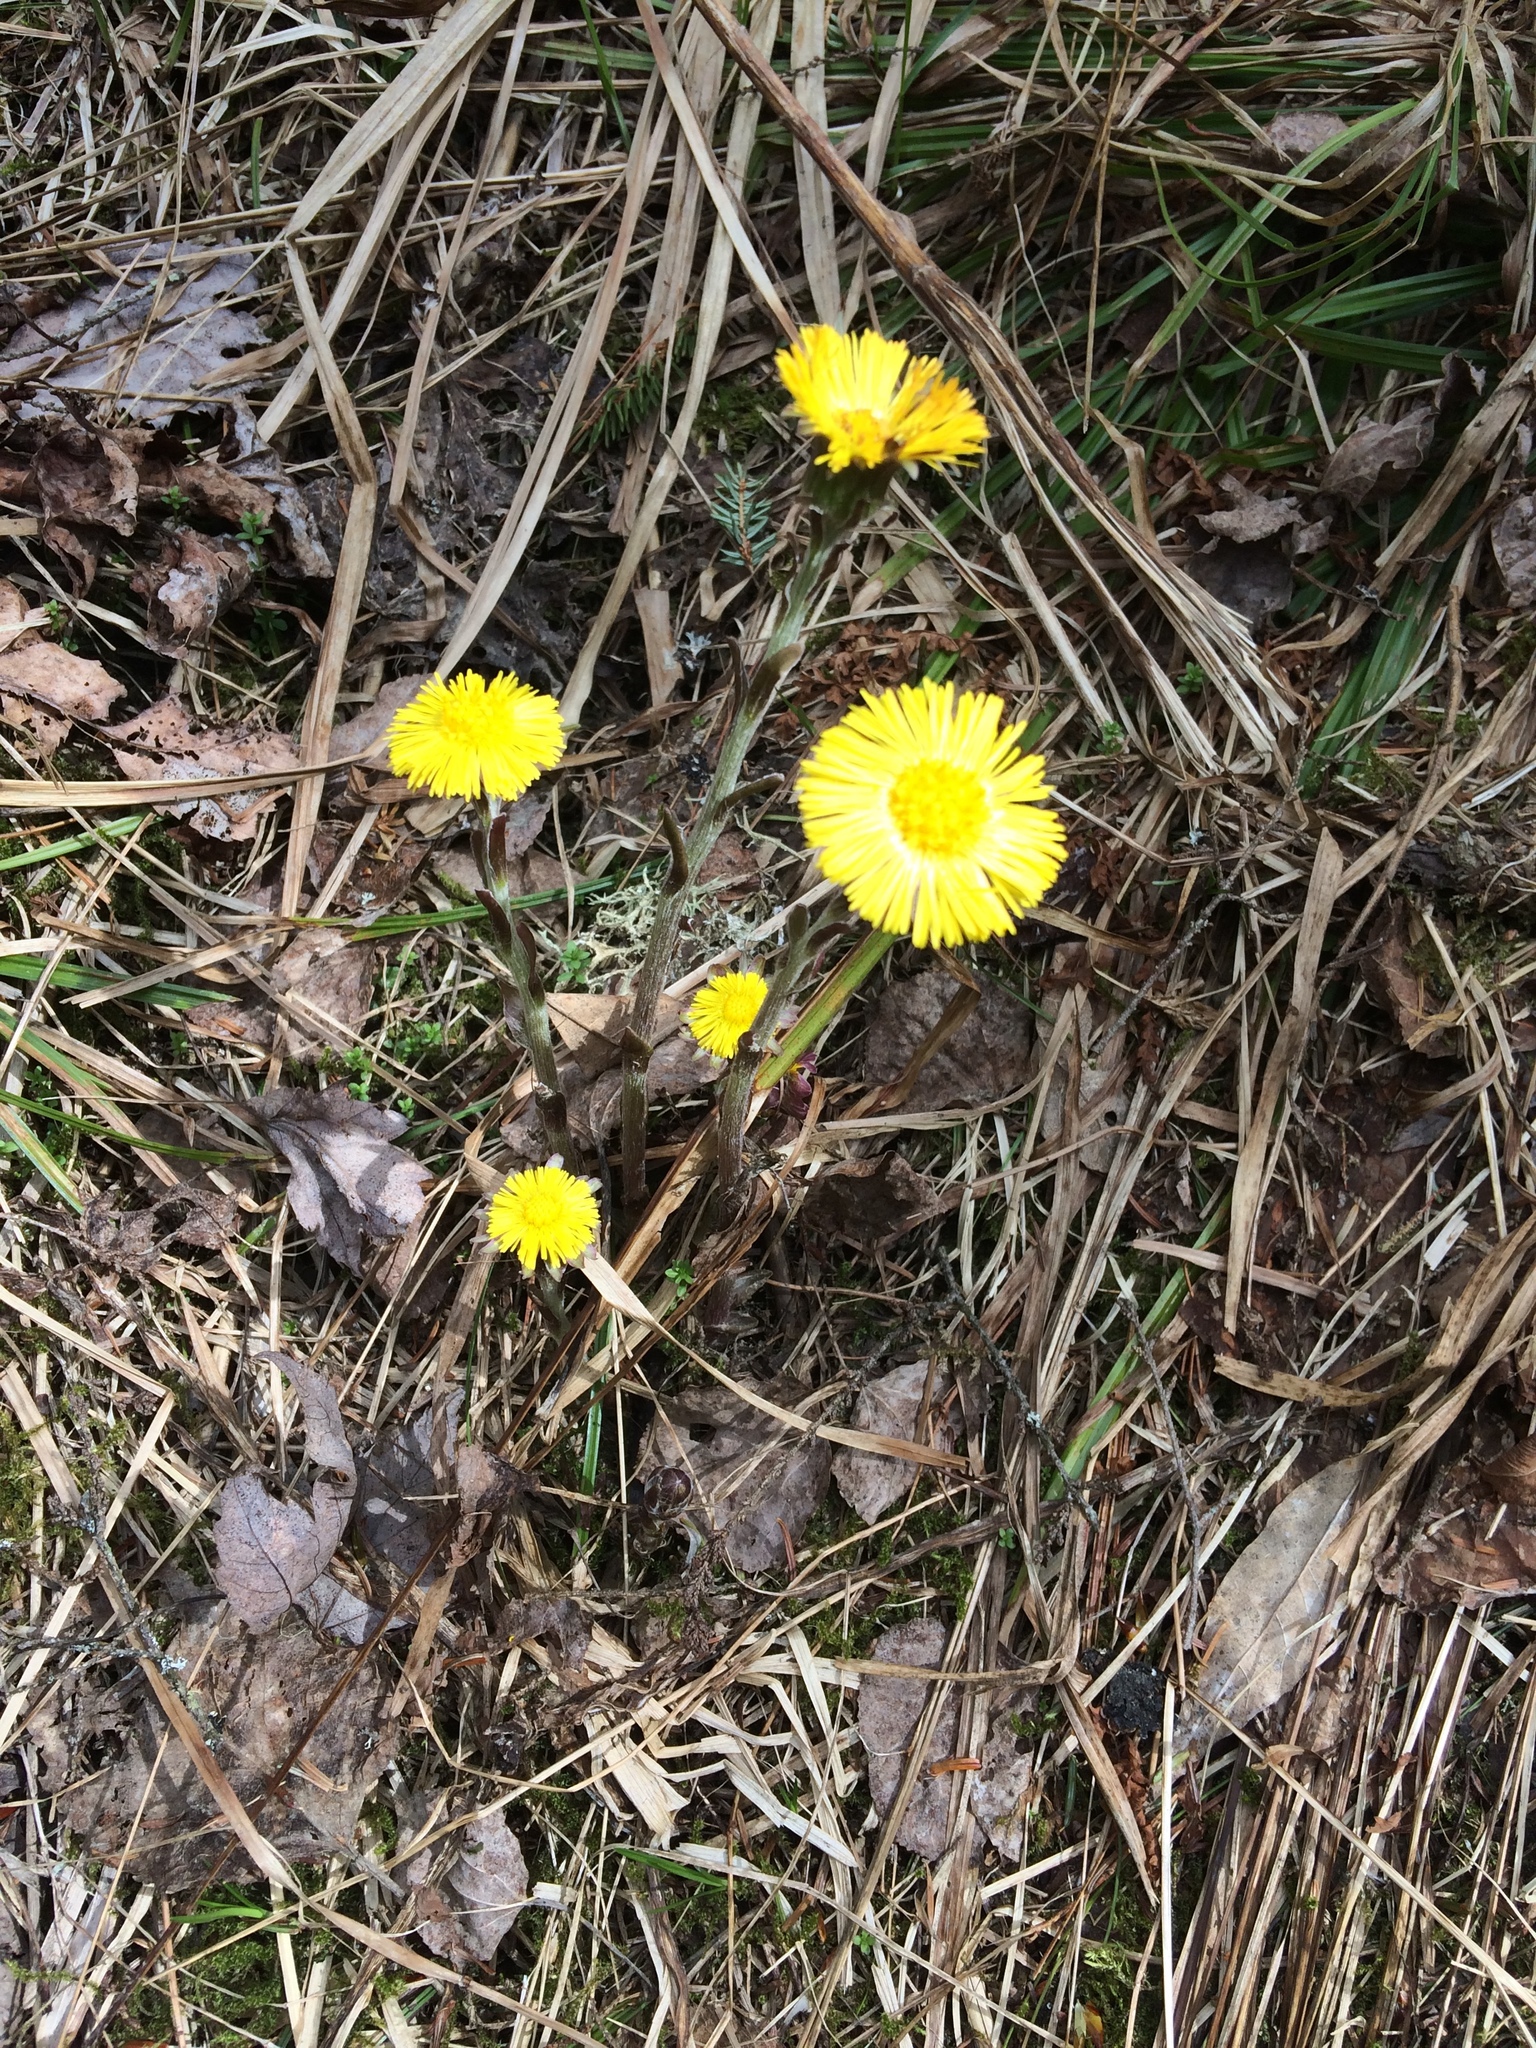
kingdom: Plantae
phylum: Tracheophyta
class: Magnoliopsida
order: Asterales
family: Asteraceae
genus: Tussilago
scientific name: Tussilago farfara
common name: Coltsfoot
